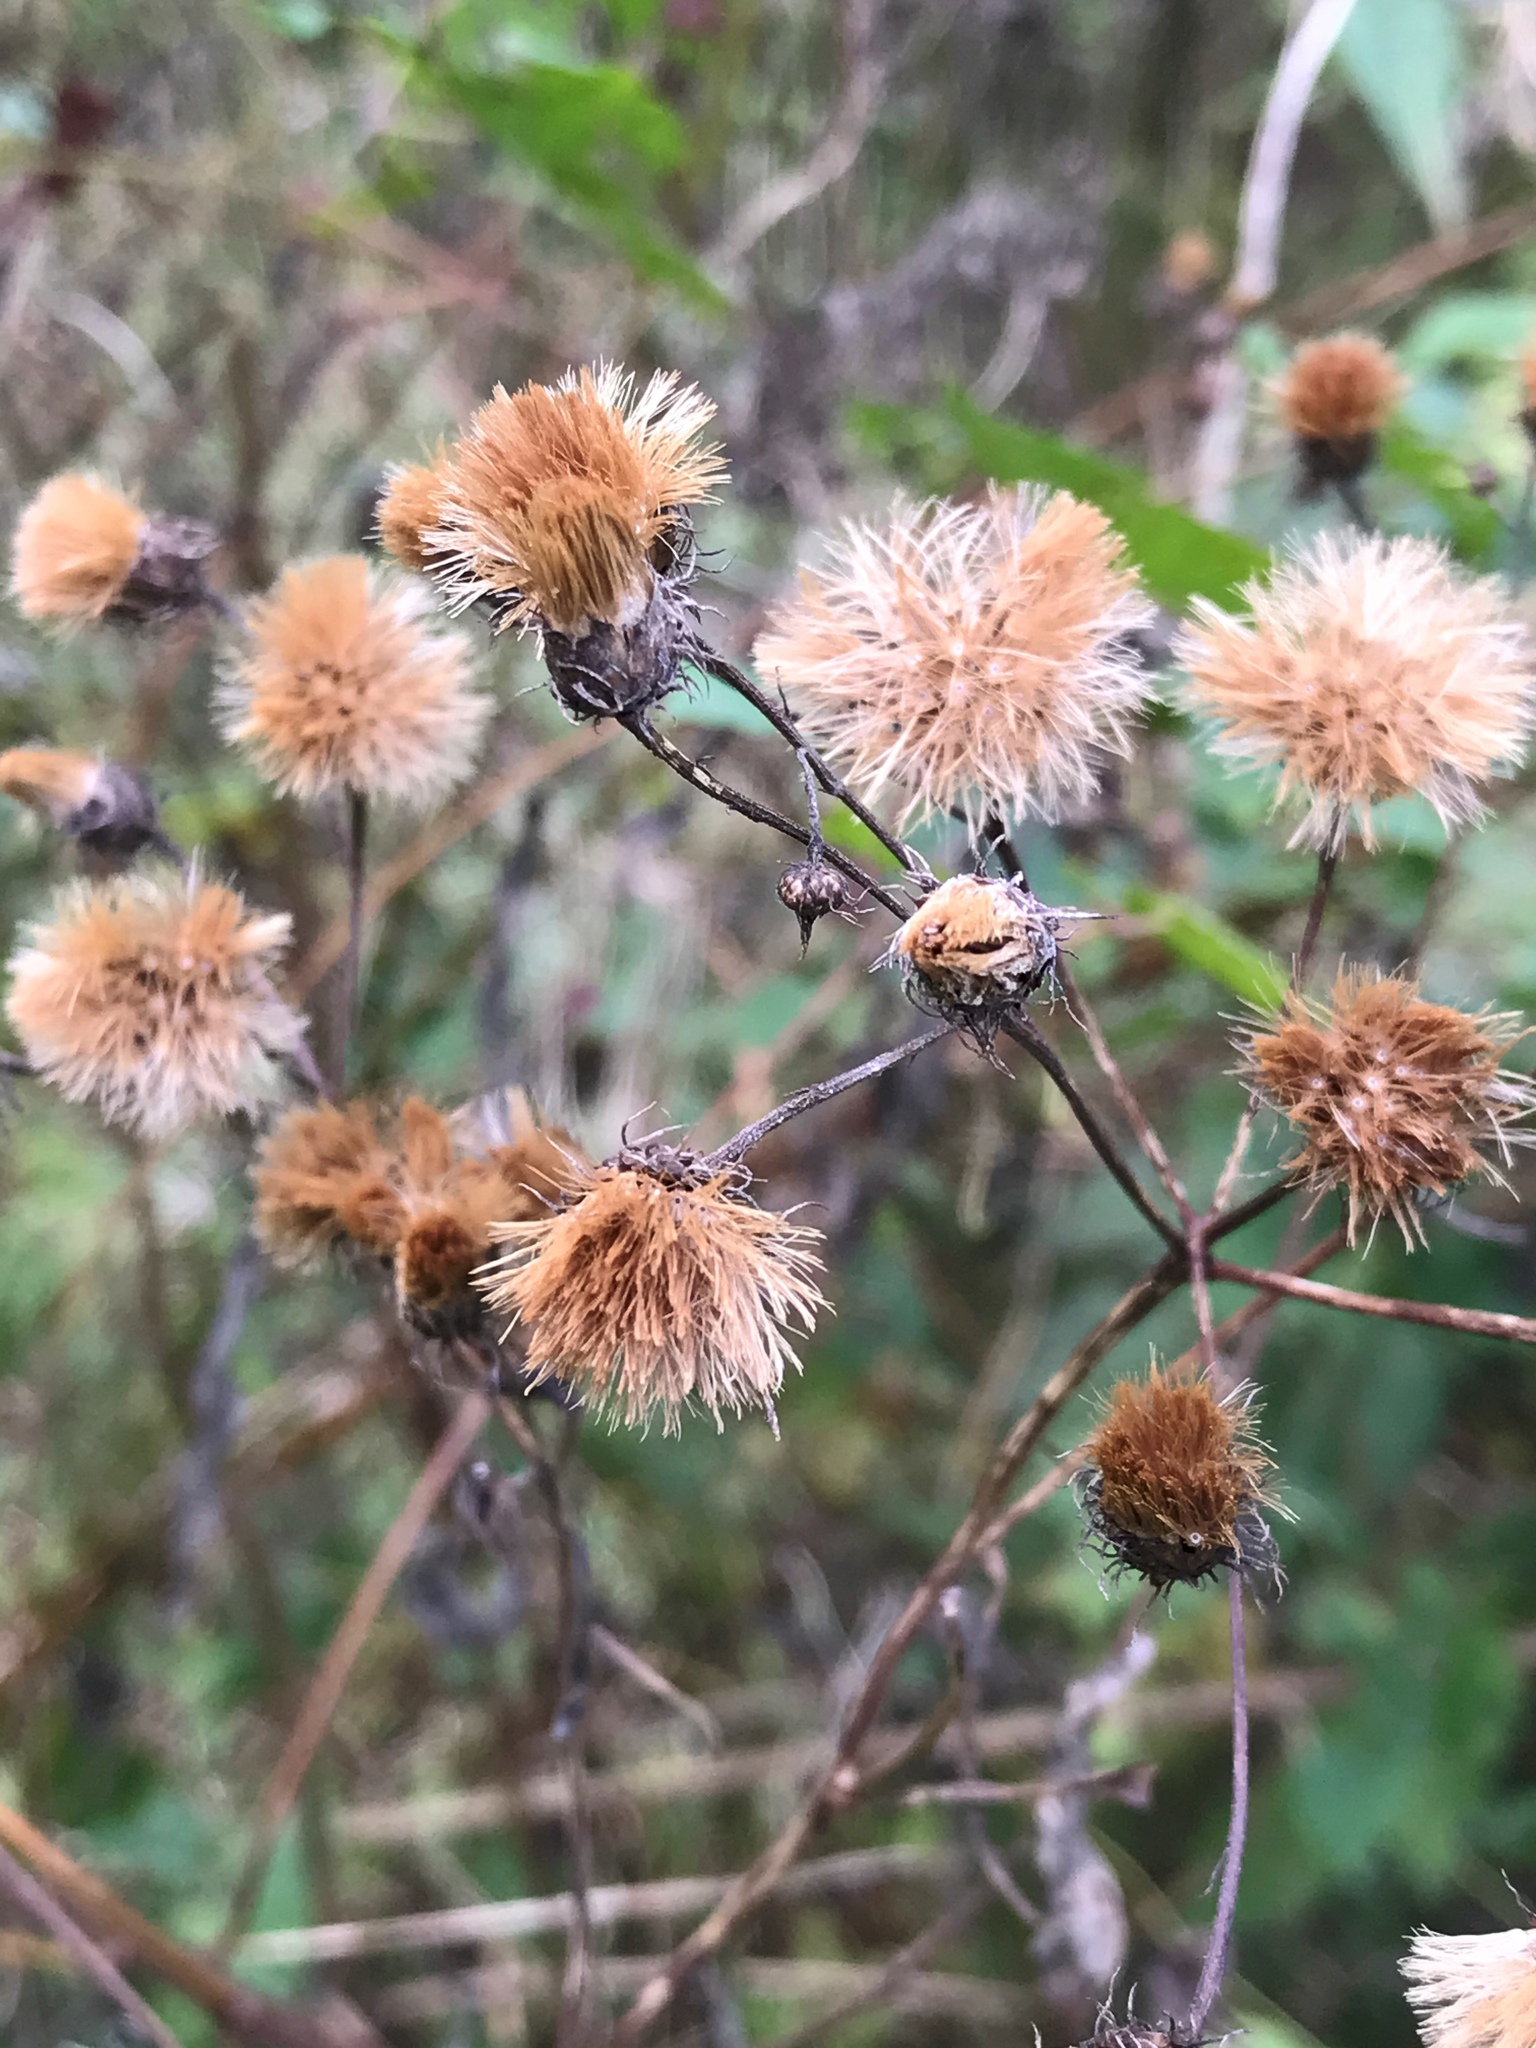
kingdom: Plantae
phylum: Tracheophyta
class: Magnoliopsida
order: Asterales
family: Asteraceae
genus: Vernonia
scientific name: Vernonia noveboracensis
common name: New york ironweed
